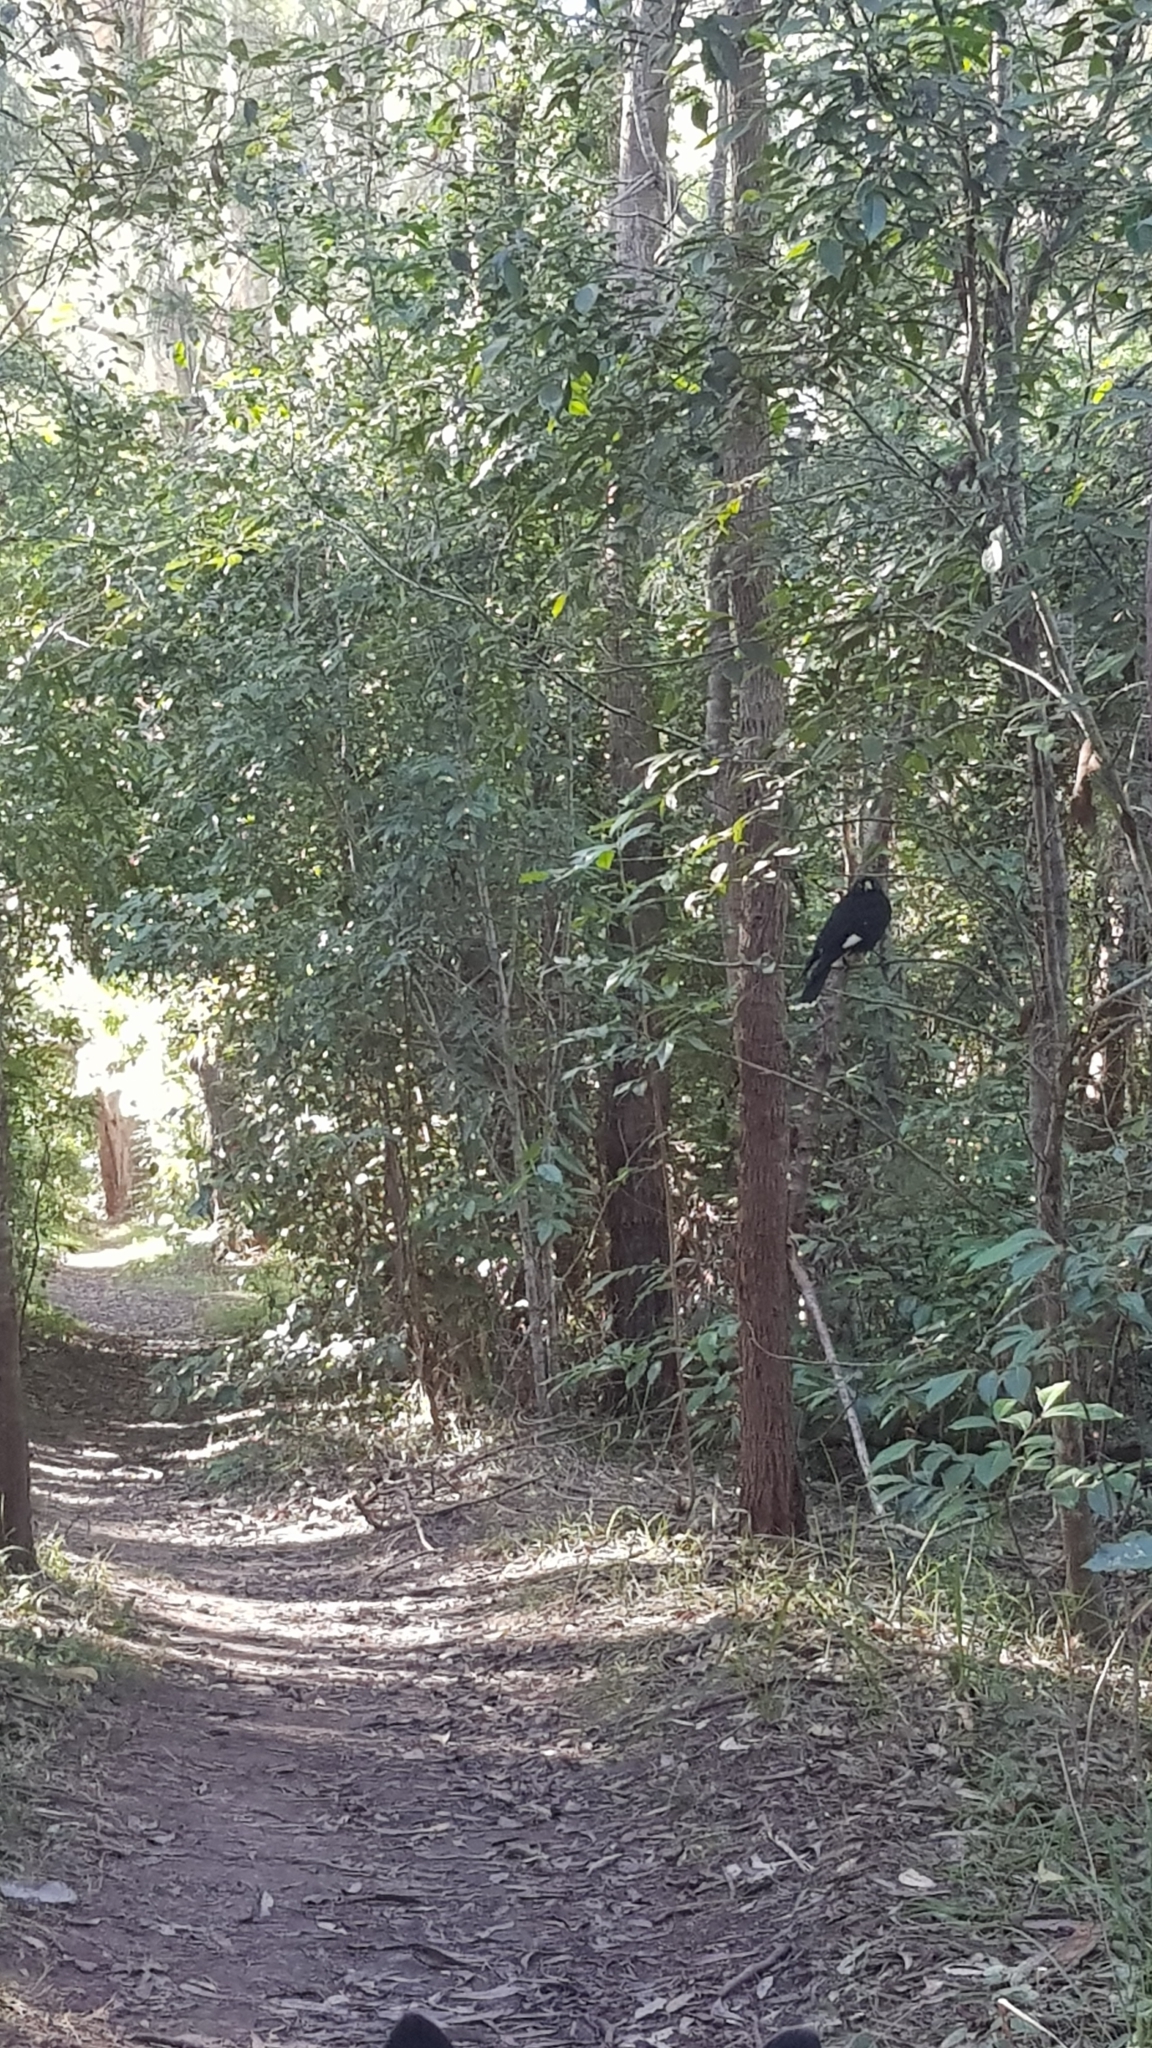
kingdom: Animalia
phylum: Chordata
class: Aves
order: Passeriformes
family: Cracticidae
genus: Strepera
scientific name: Strepera graculina
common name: Pied currawong
